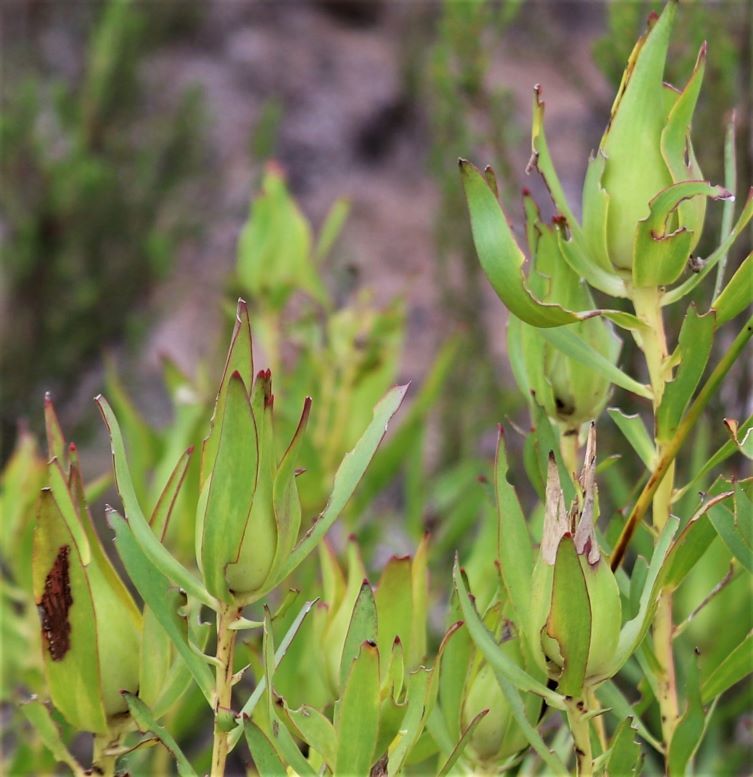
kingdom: Plantae
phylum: Tracheophyta
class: Magnoliopsida
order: Proteales
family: Proteaceae
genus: Leucadendron
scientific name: Leucadendron salignum
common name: Common sunshine conebush
